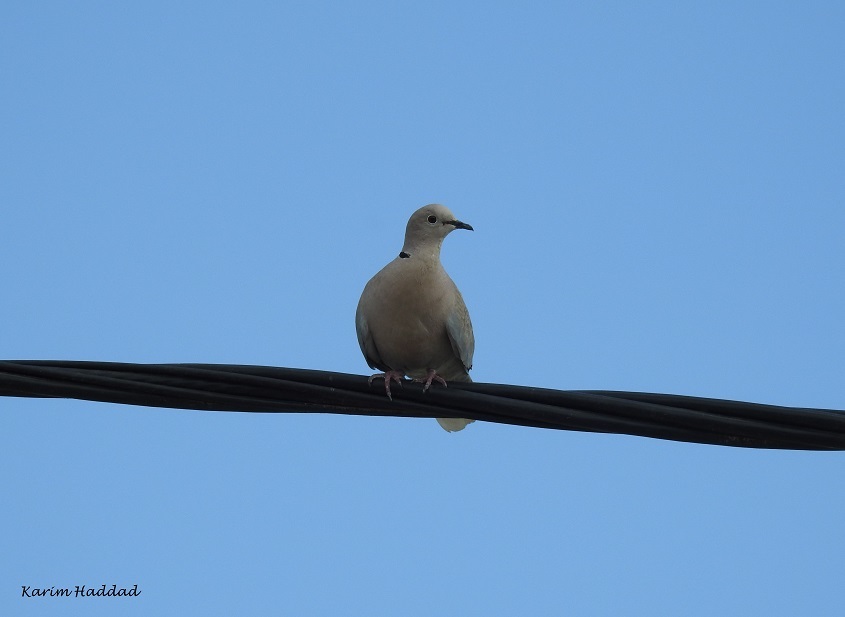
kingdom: Animalia
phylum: Chordata
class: Aves
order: Columbiformes
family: Columbidae
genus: Streptopelia
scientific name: Streptopelia decaocto
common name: Eurasian collared dove
